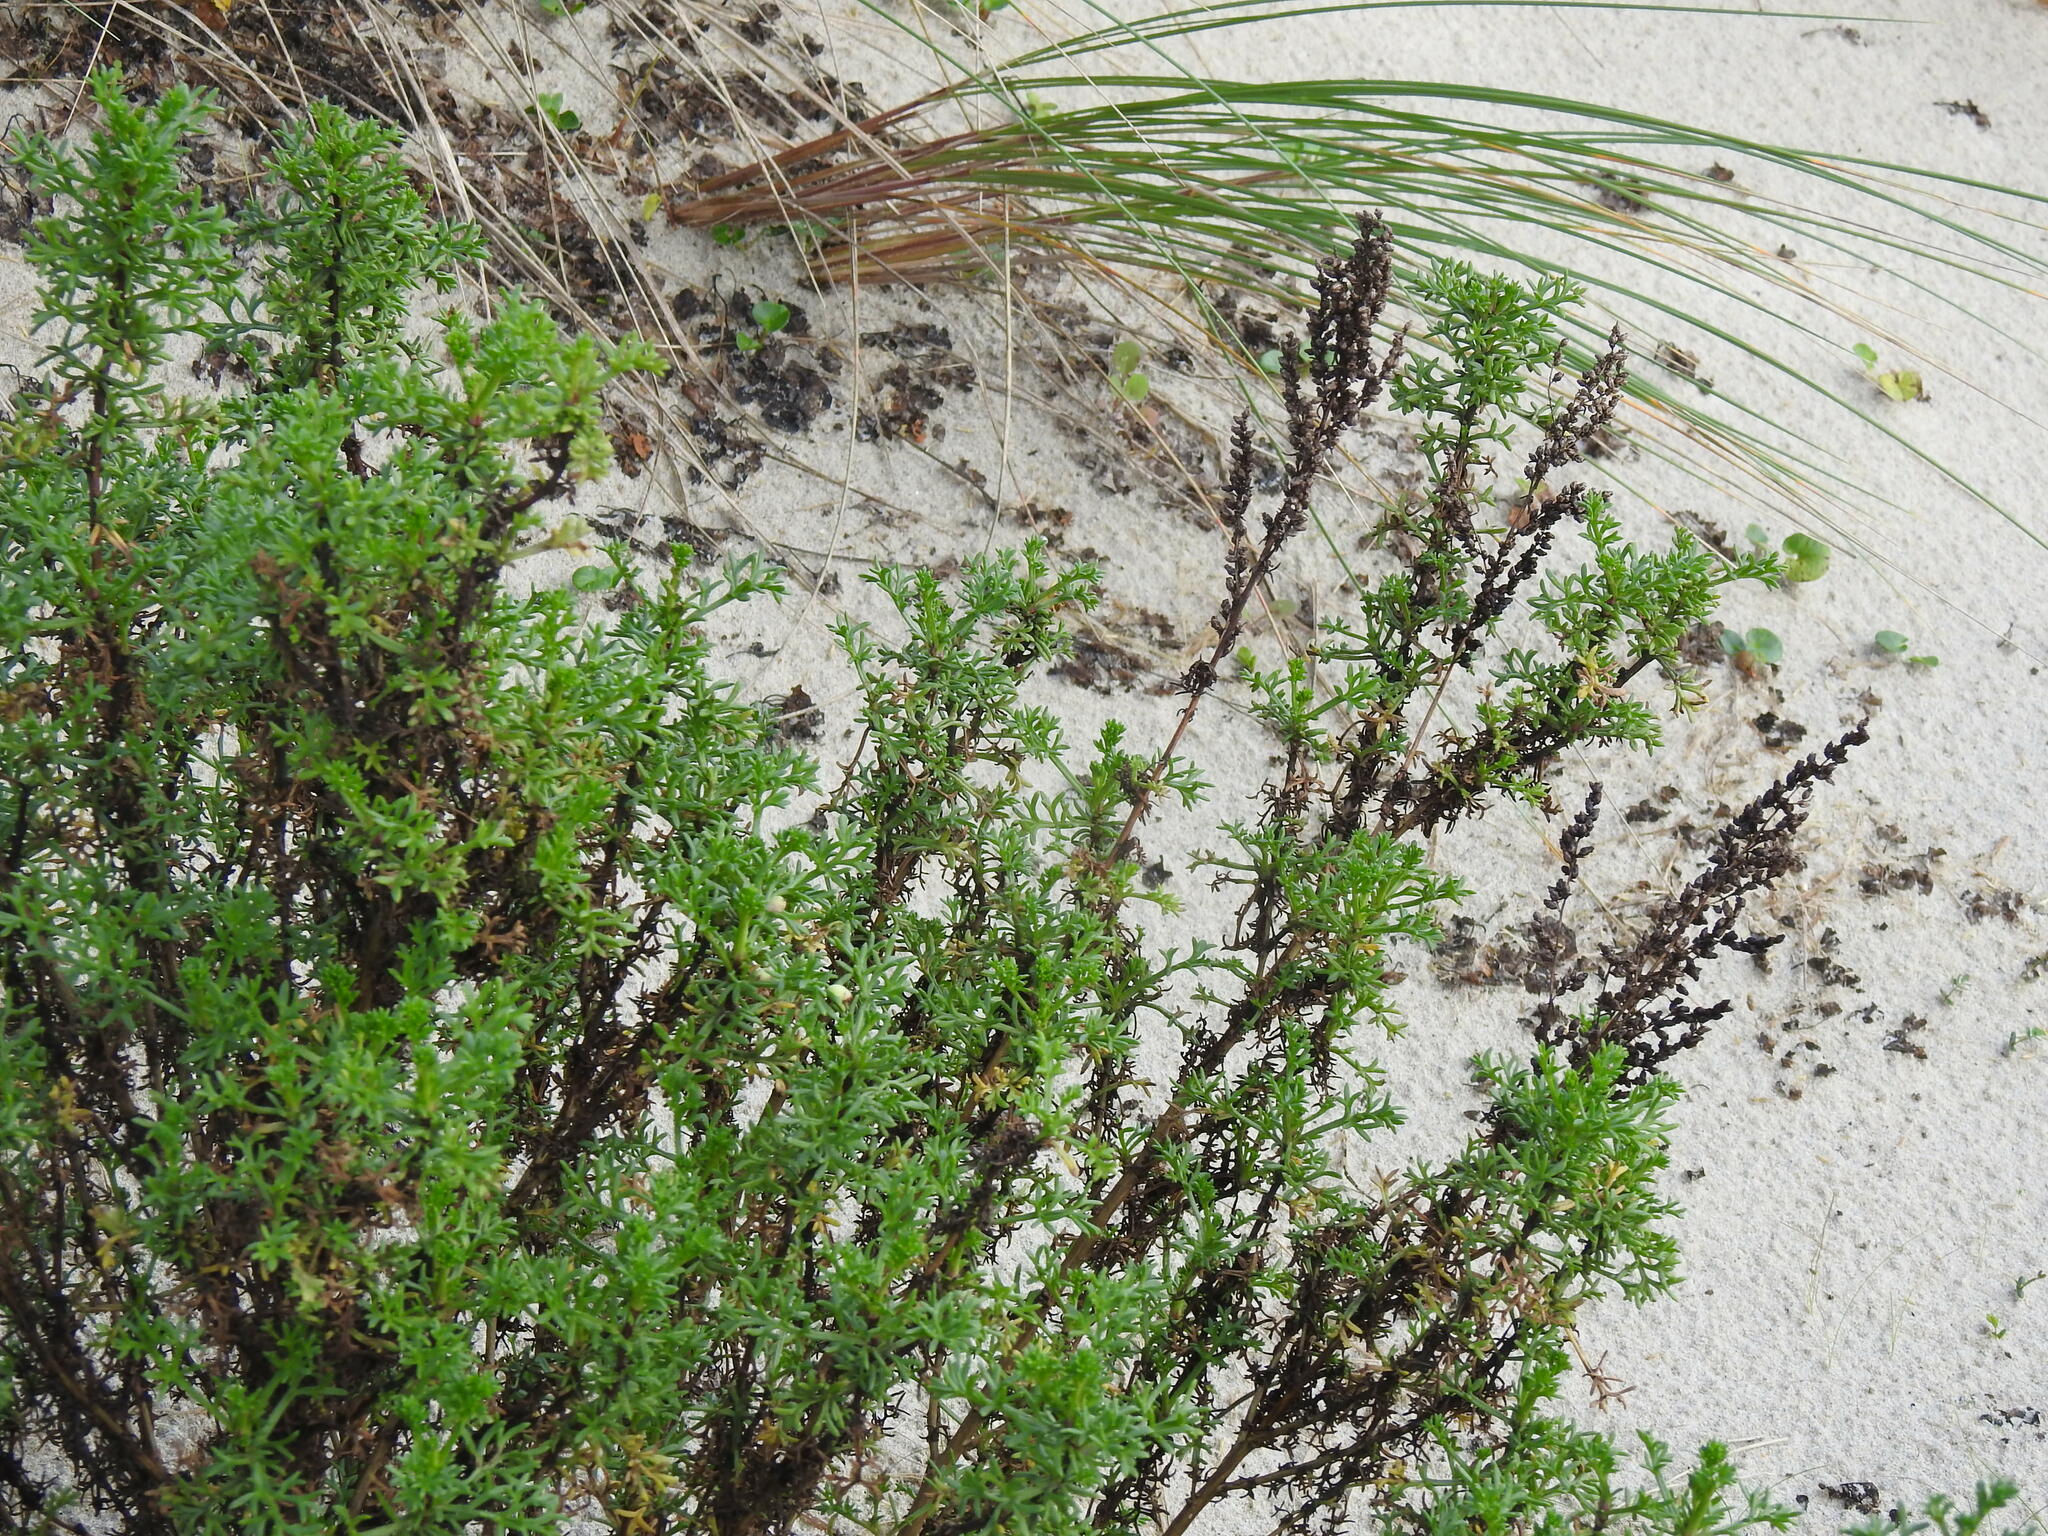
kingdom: Plantae
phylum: Tracheophyta
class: Magnoliopsida
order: Asterales
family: Asteraceae
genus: Artemisia
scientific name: Artemisia crithmifolia
